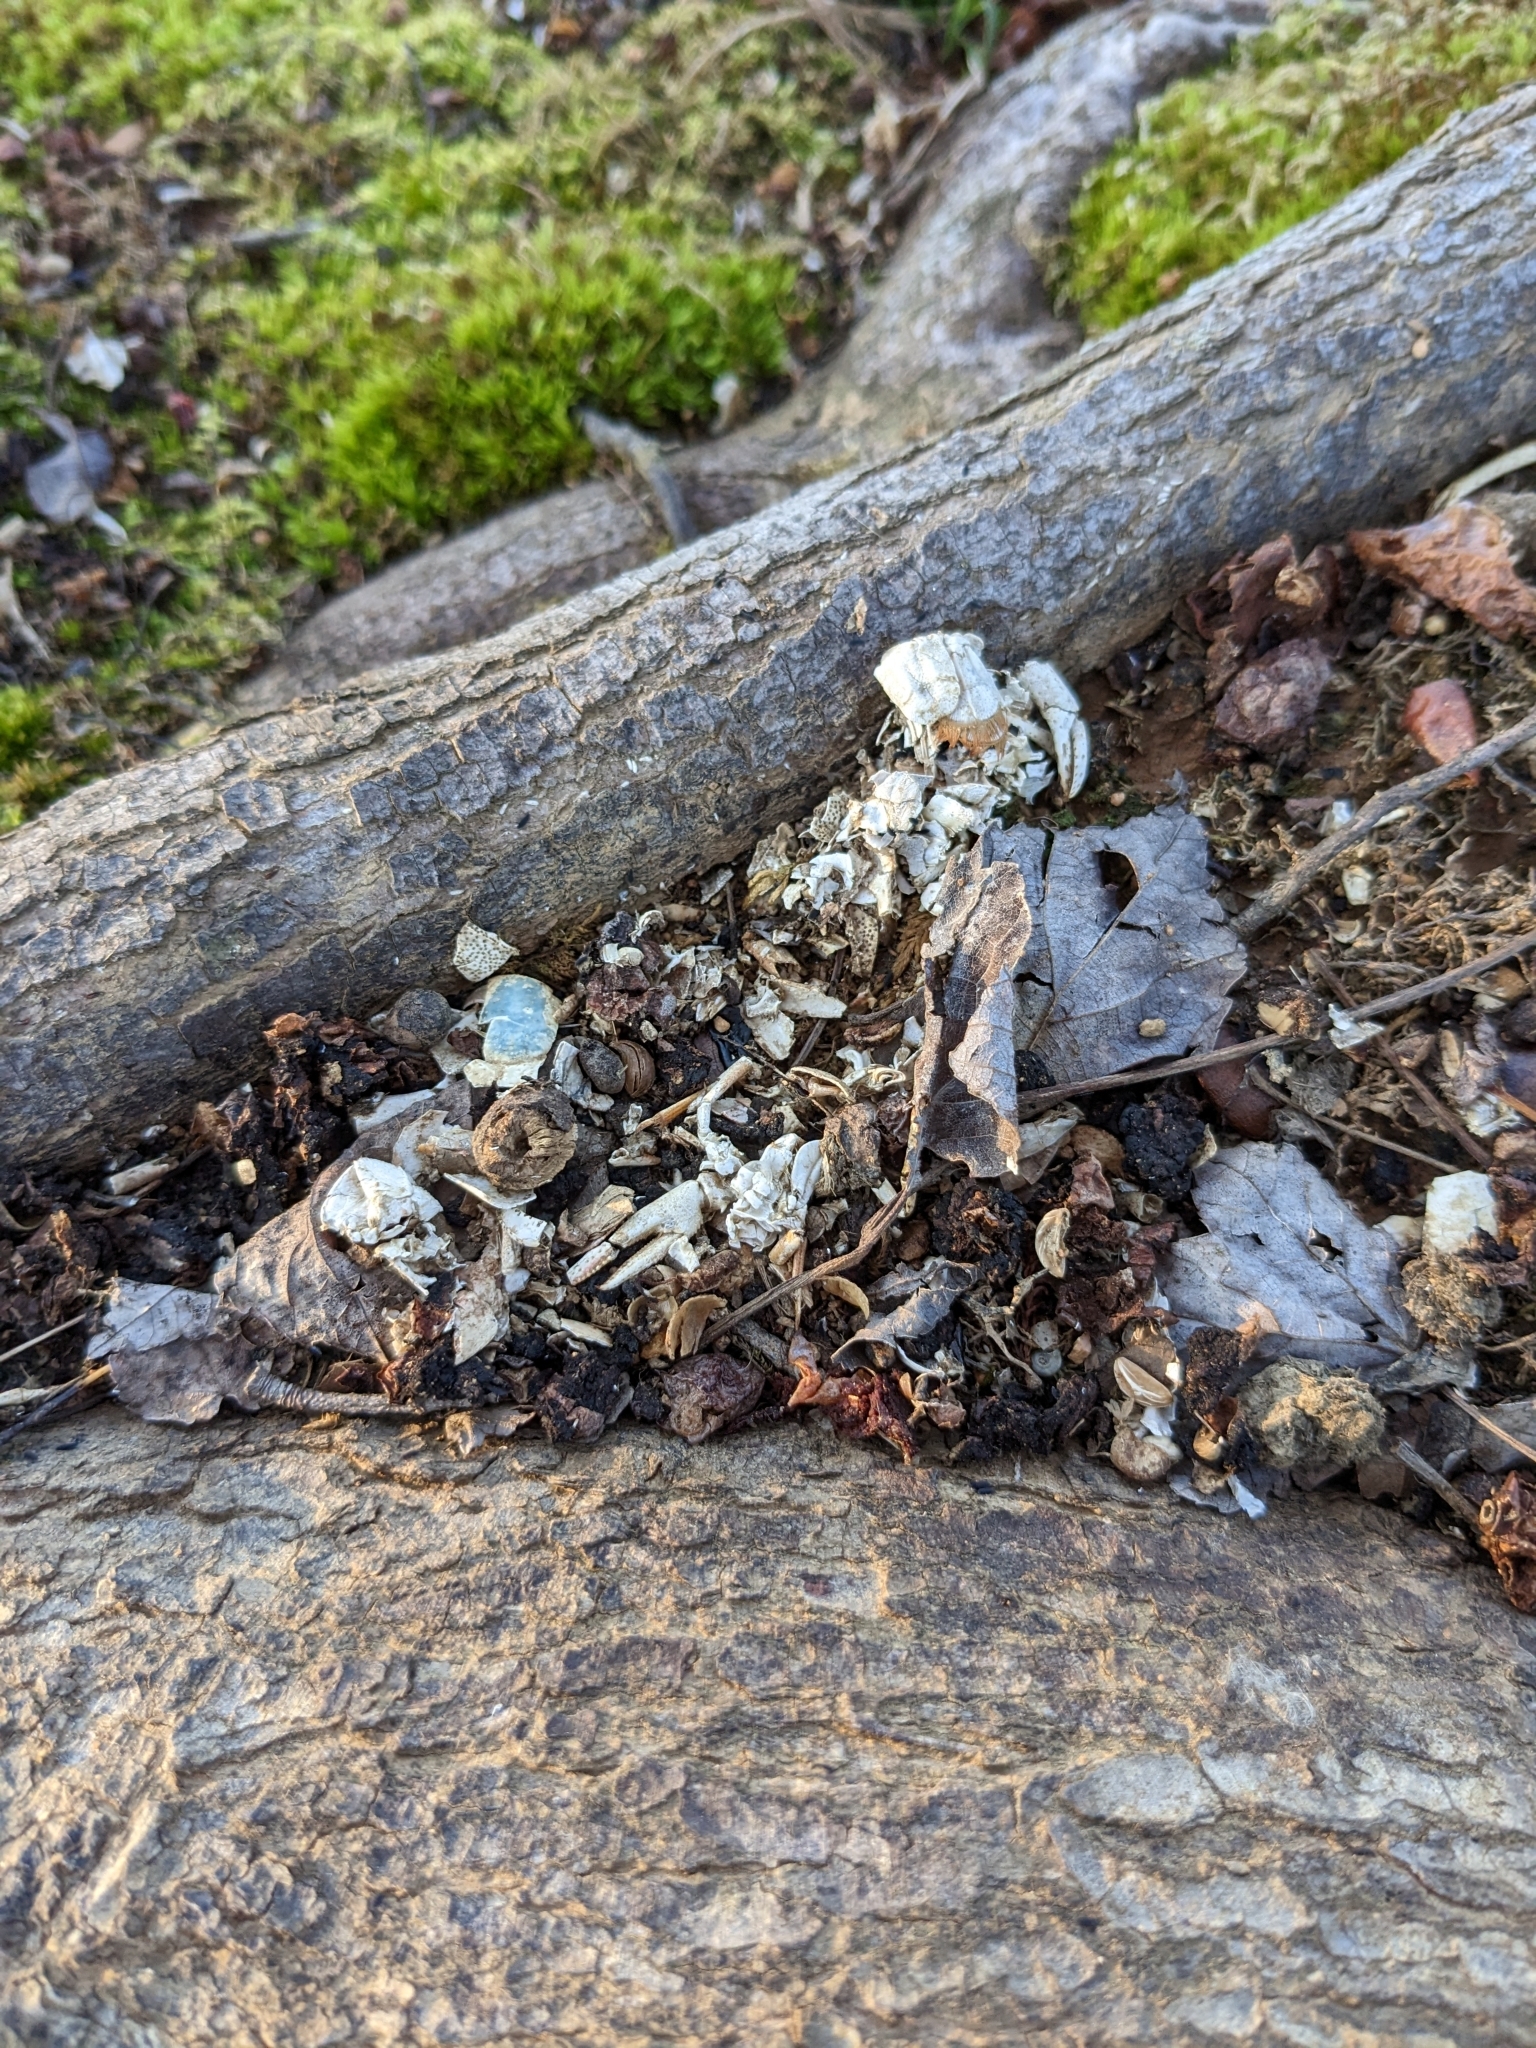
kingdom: Animalia
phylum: Chordata
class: Mammalia
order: Carnivora
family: Mustelidae
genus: Lontra
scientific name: Lontra canadensis
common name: North american river otter
